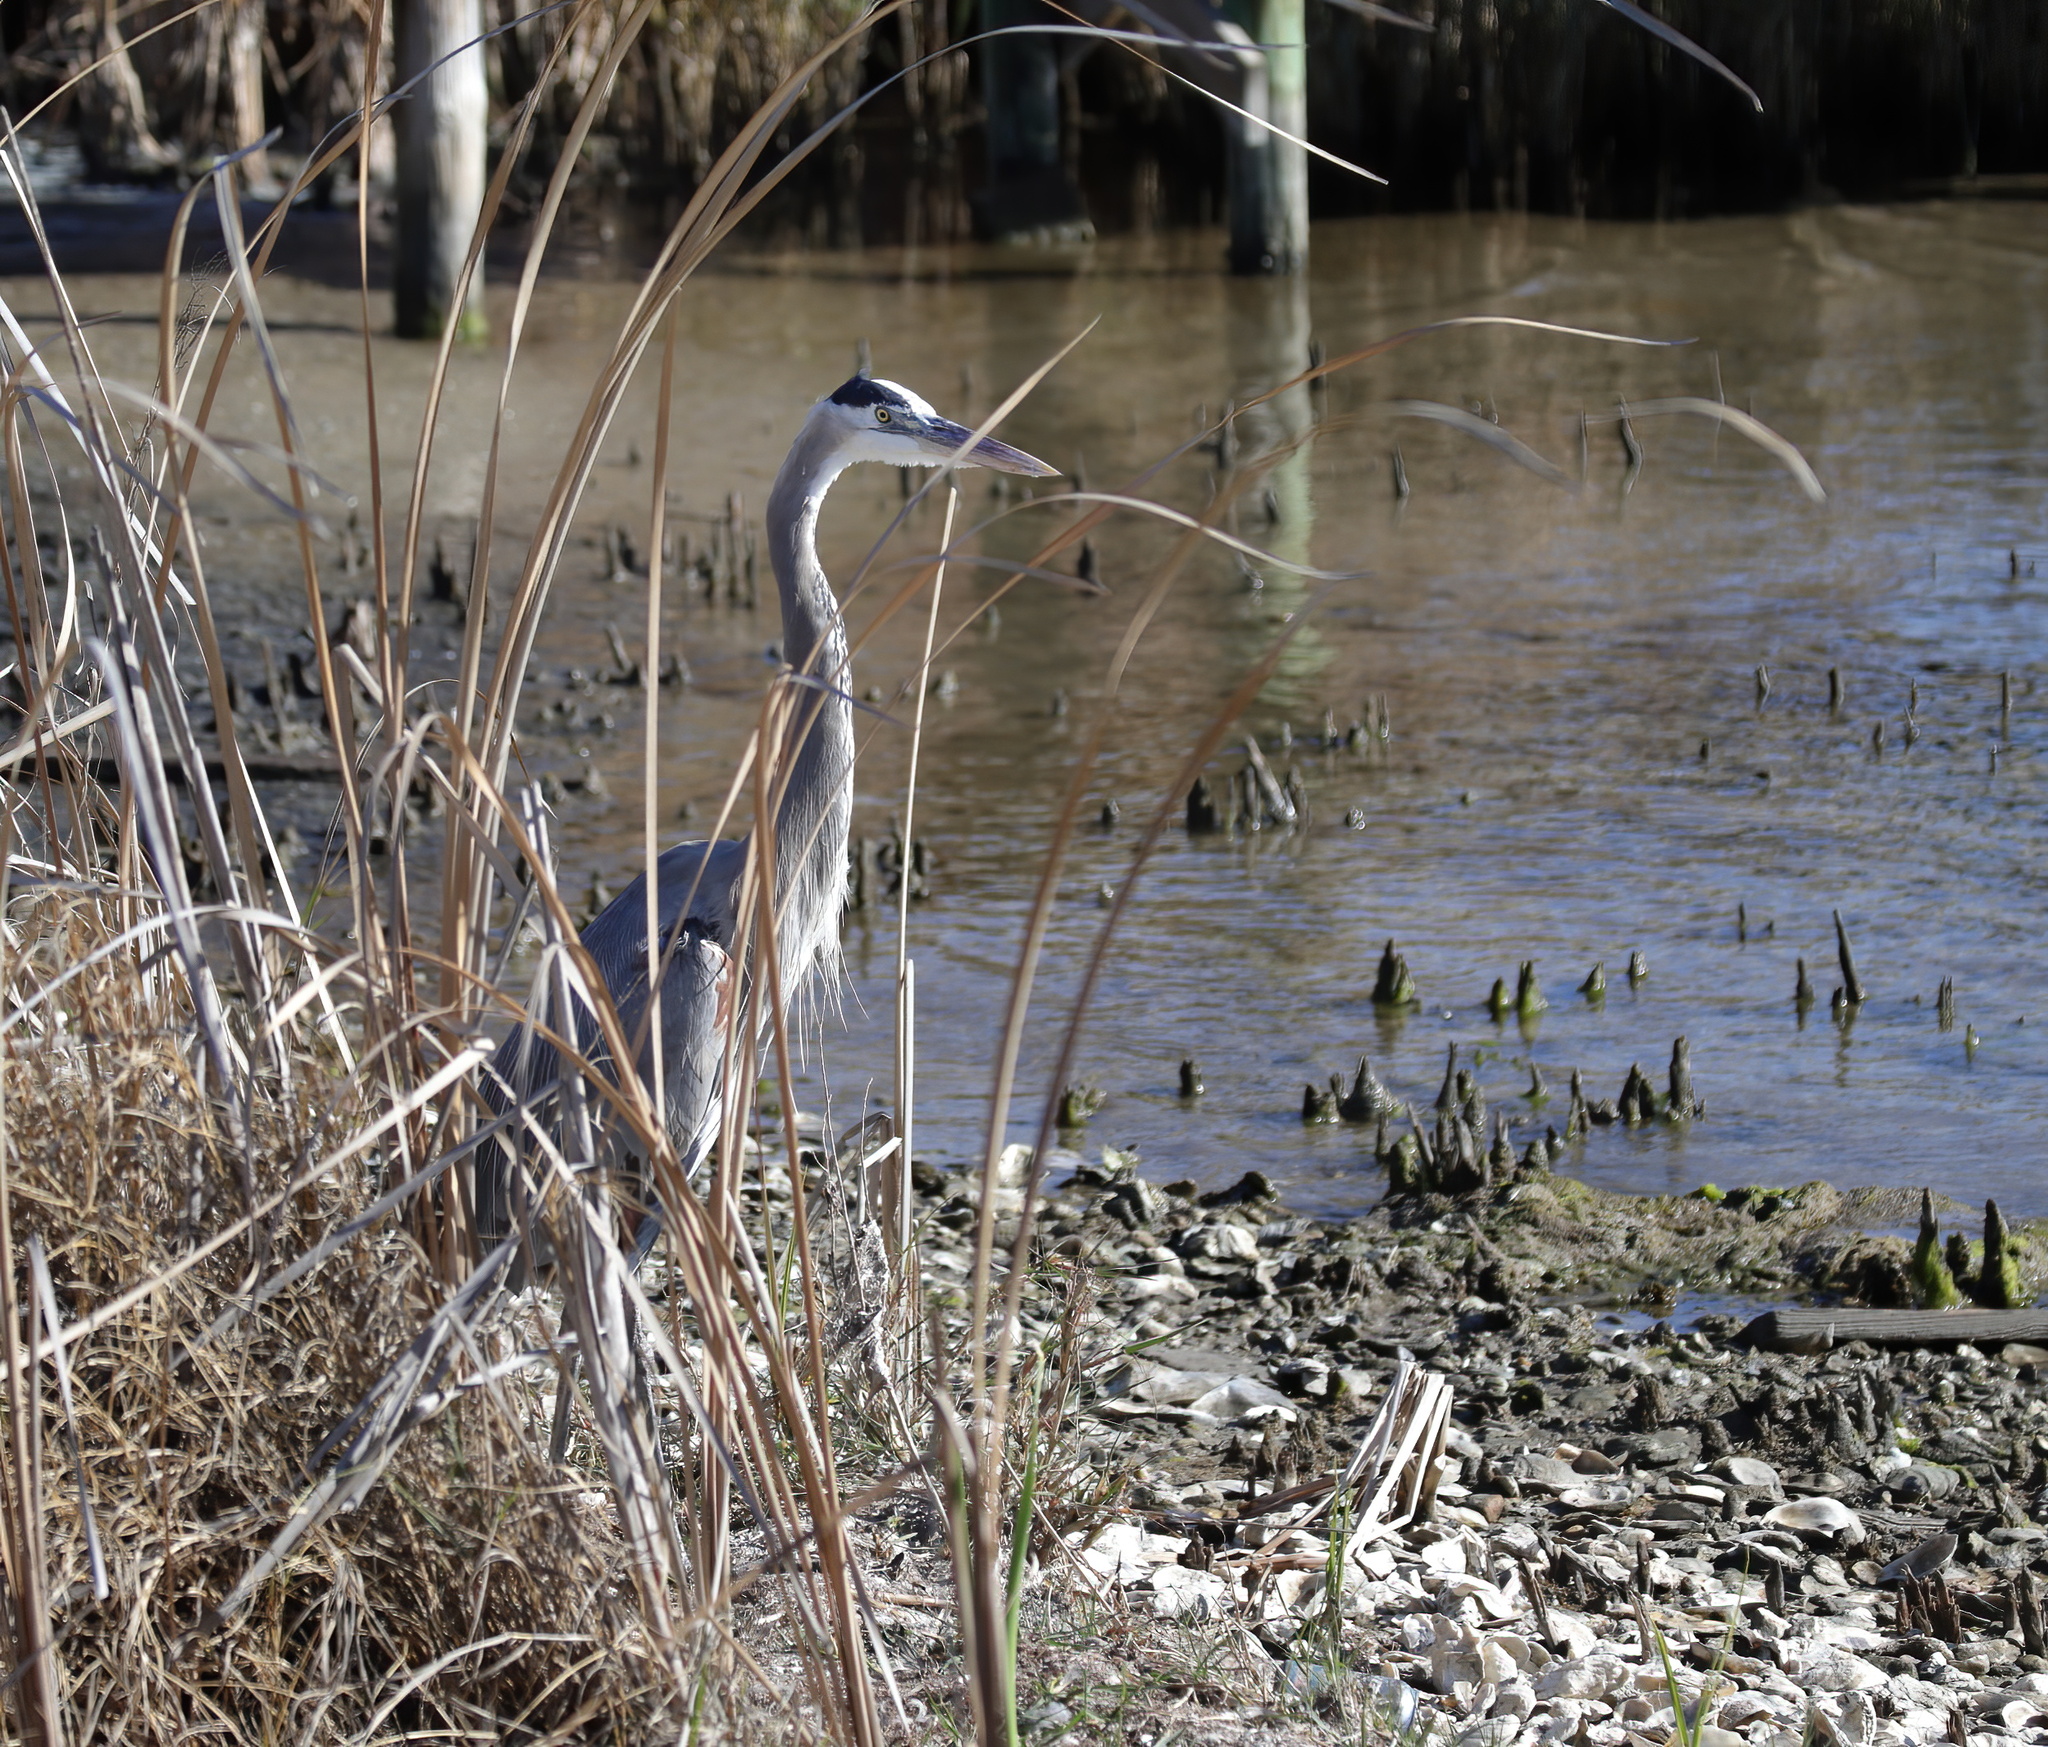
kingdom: Animalia
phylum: Chordata
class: Aves
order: Pelecaniformes
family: Ardeidae
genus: Ardea
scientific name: Ardea herodias
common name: Great blue heron
